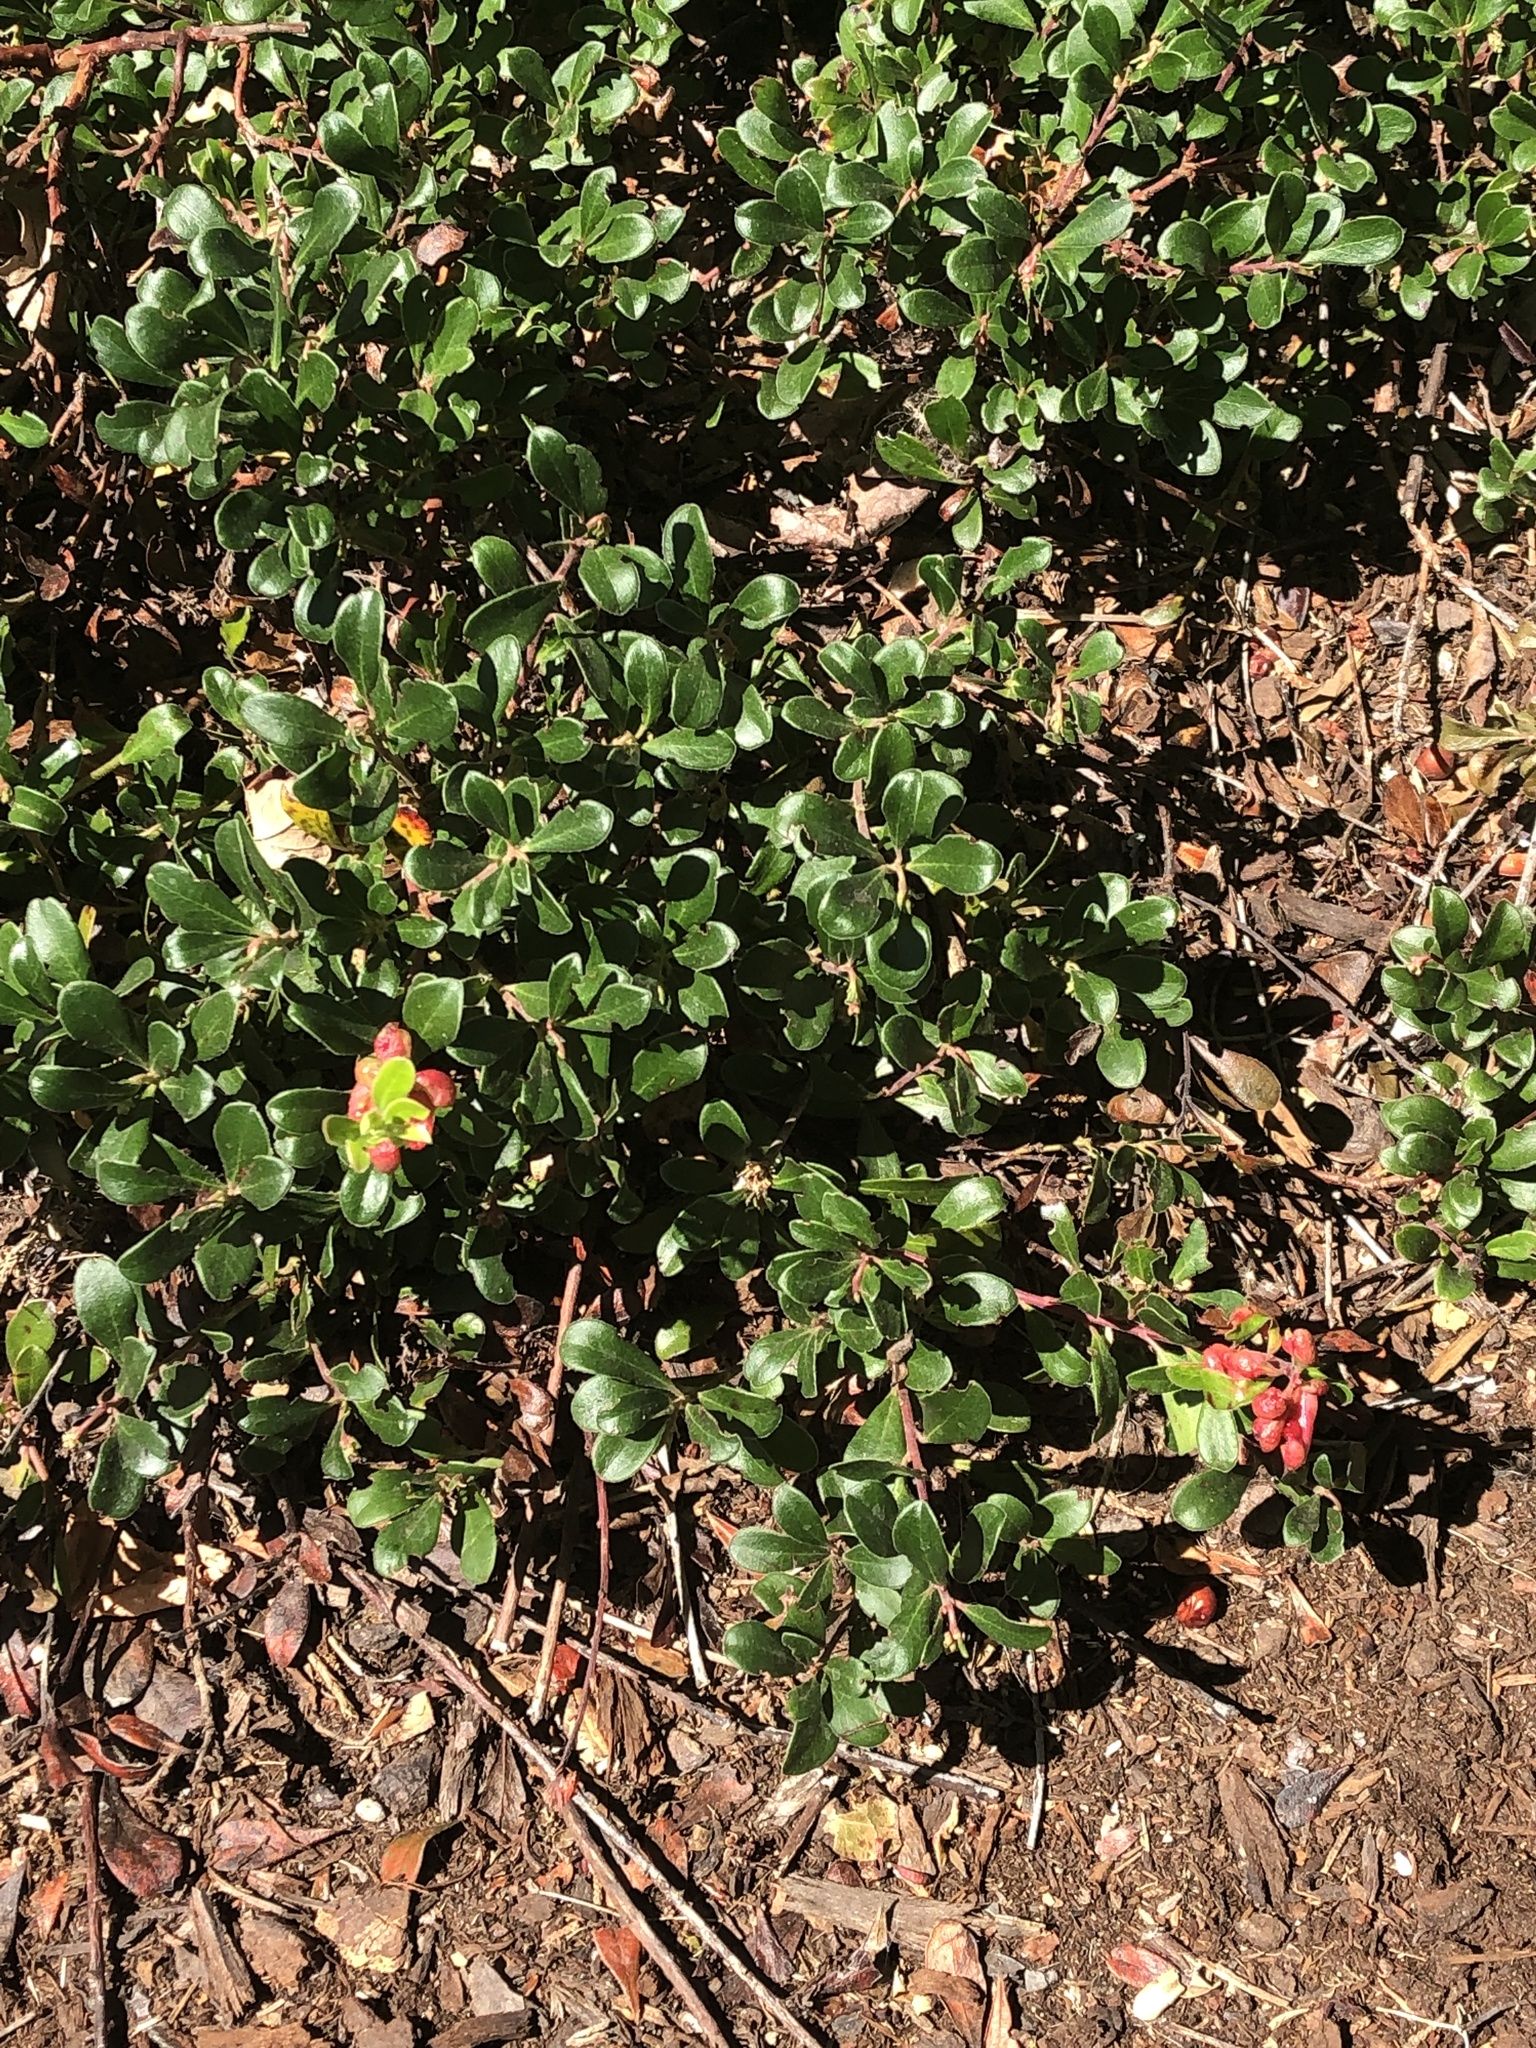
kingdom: Plantae
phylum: Tracheophyta
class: Magnoliopsida
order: Ericales
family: Ericaceae
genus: Arctostaphylos
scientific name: Arctostaphylos uva-ursi
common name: Bearberry
